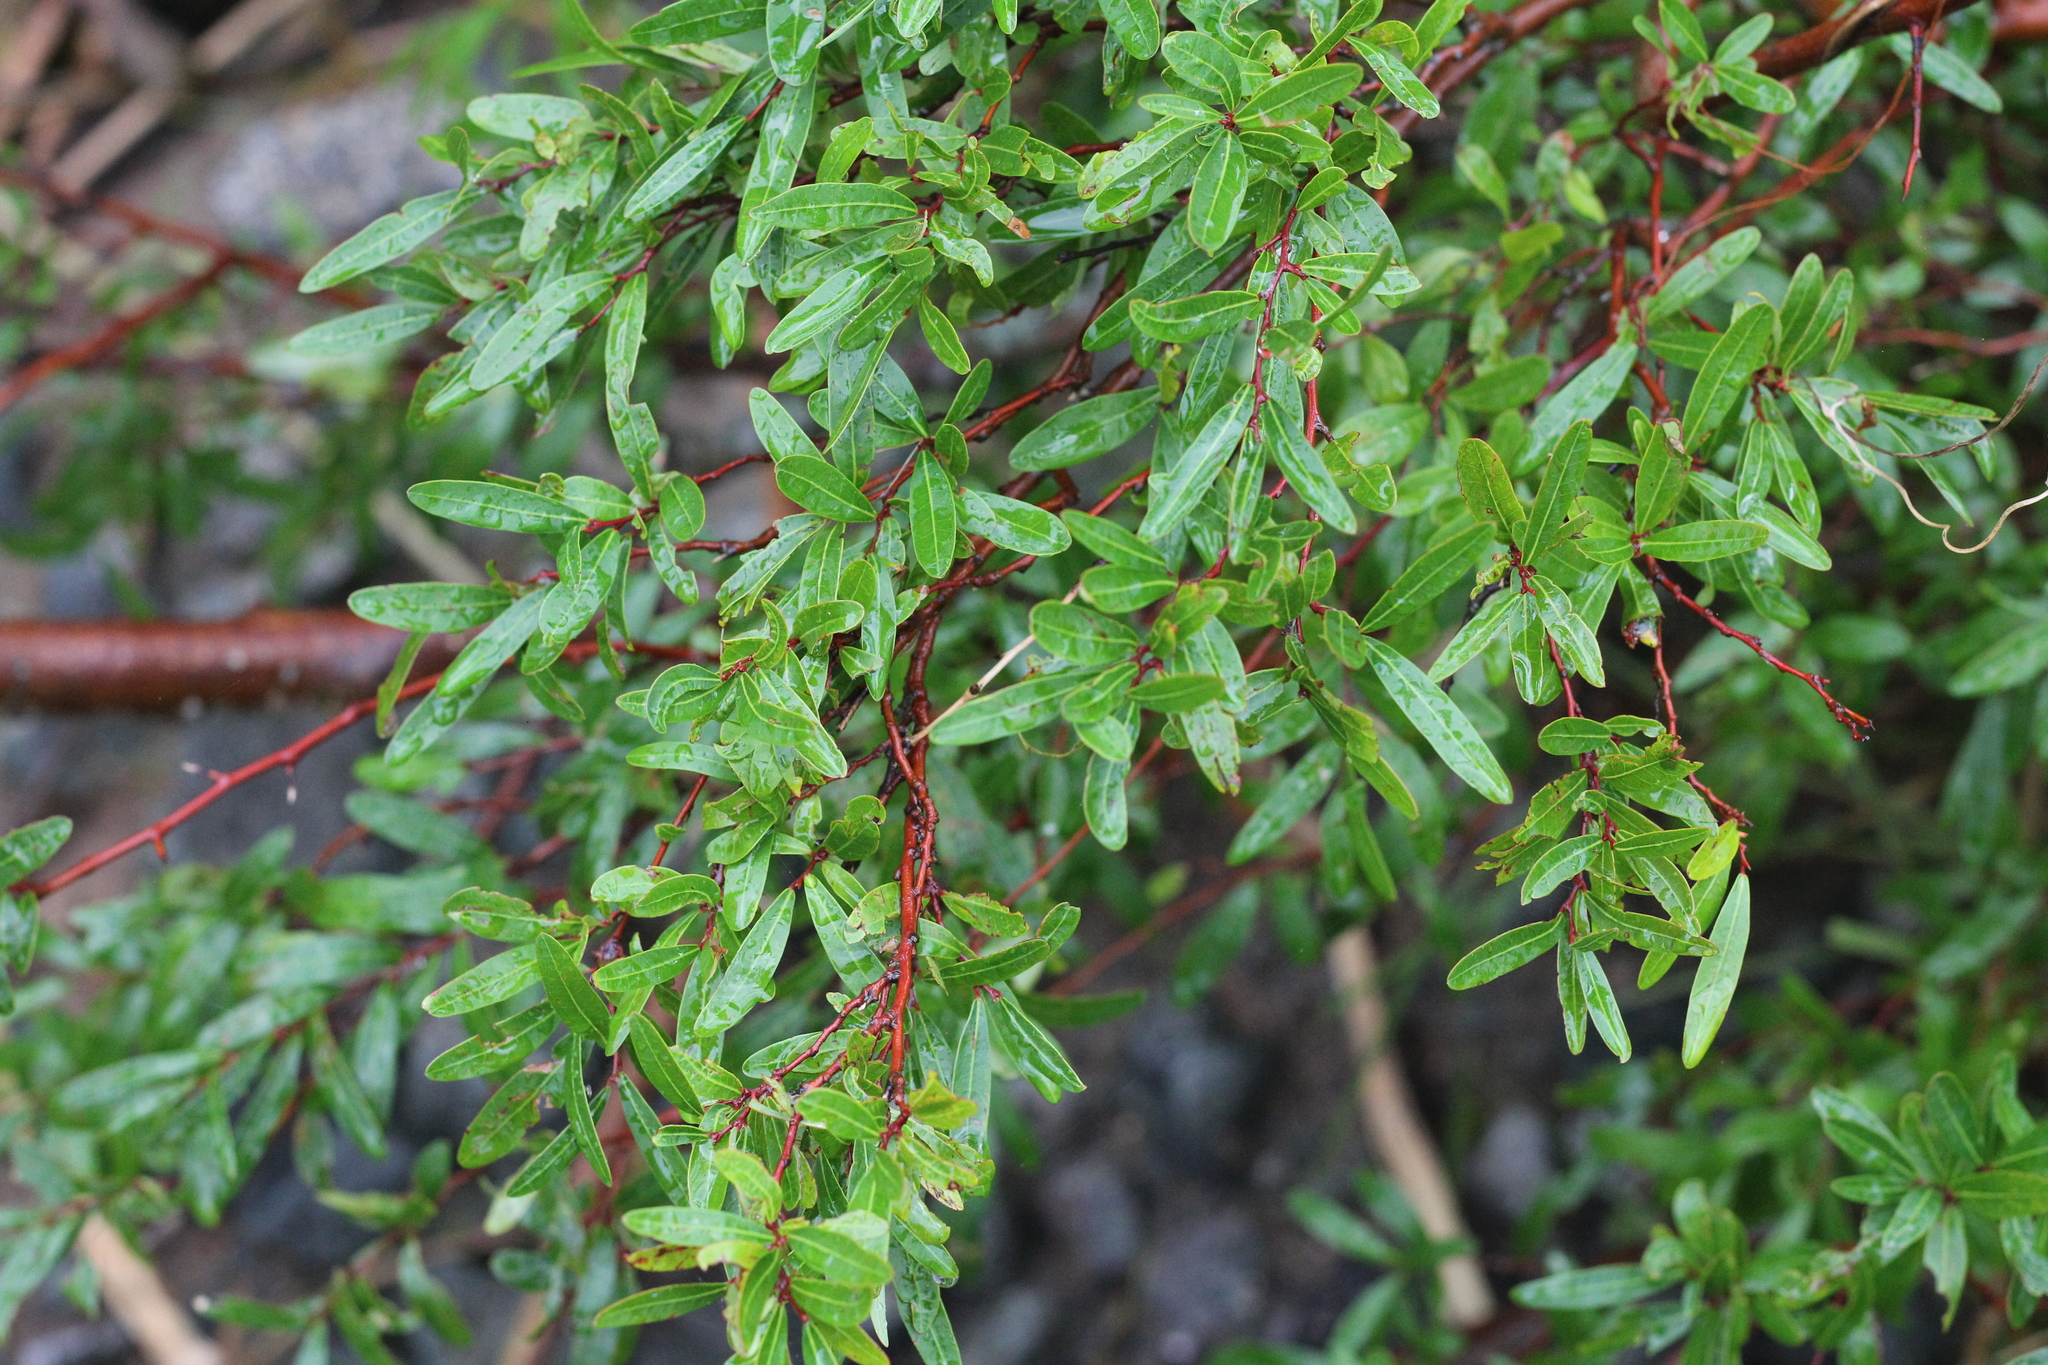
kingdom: Plantae
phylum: Tracheophyta
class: Magnoliopsida
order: Malpighiales
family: Euphorbiaceae
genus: Sebastiania
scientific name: Sebastiania schottiana
